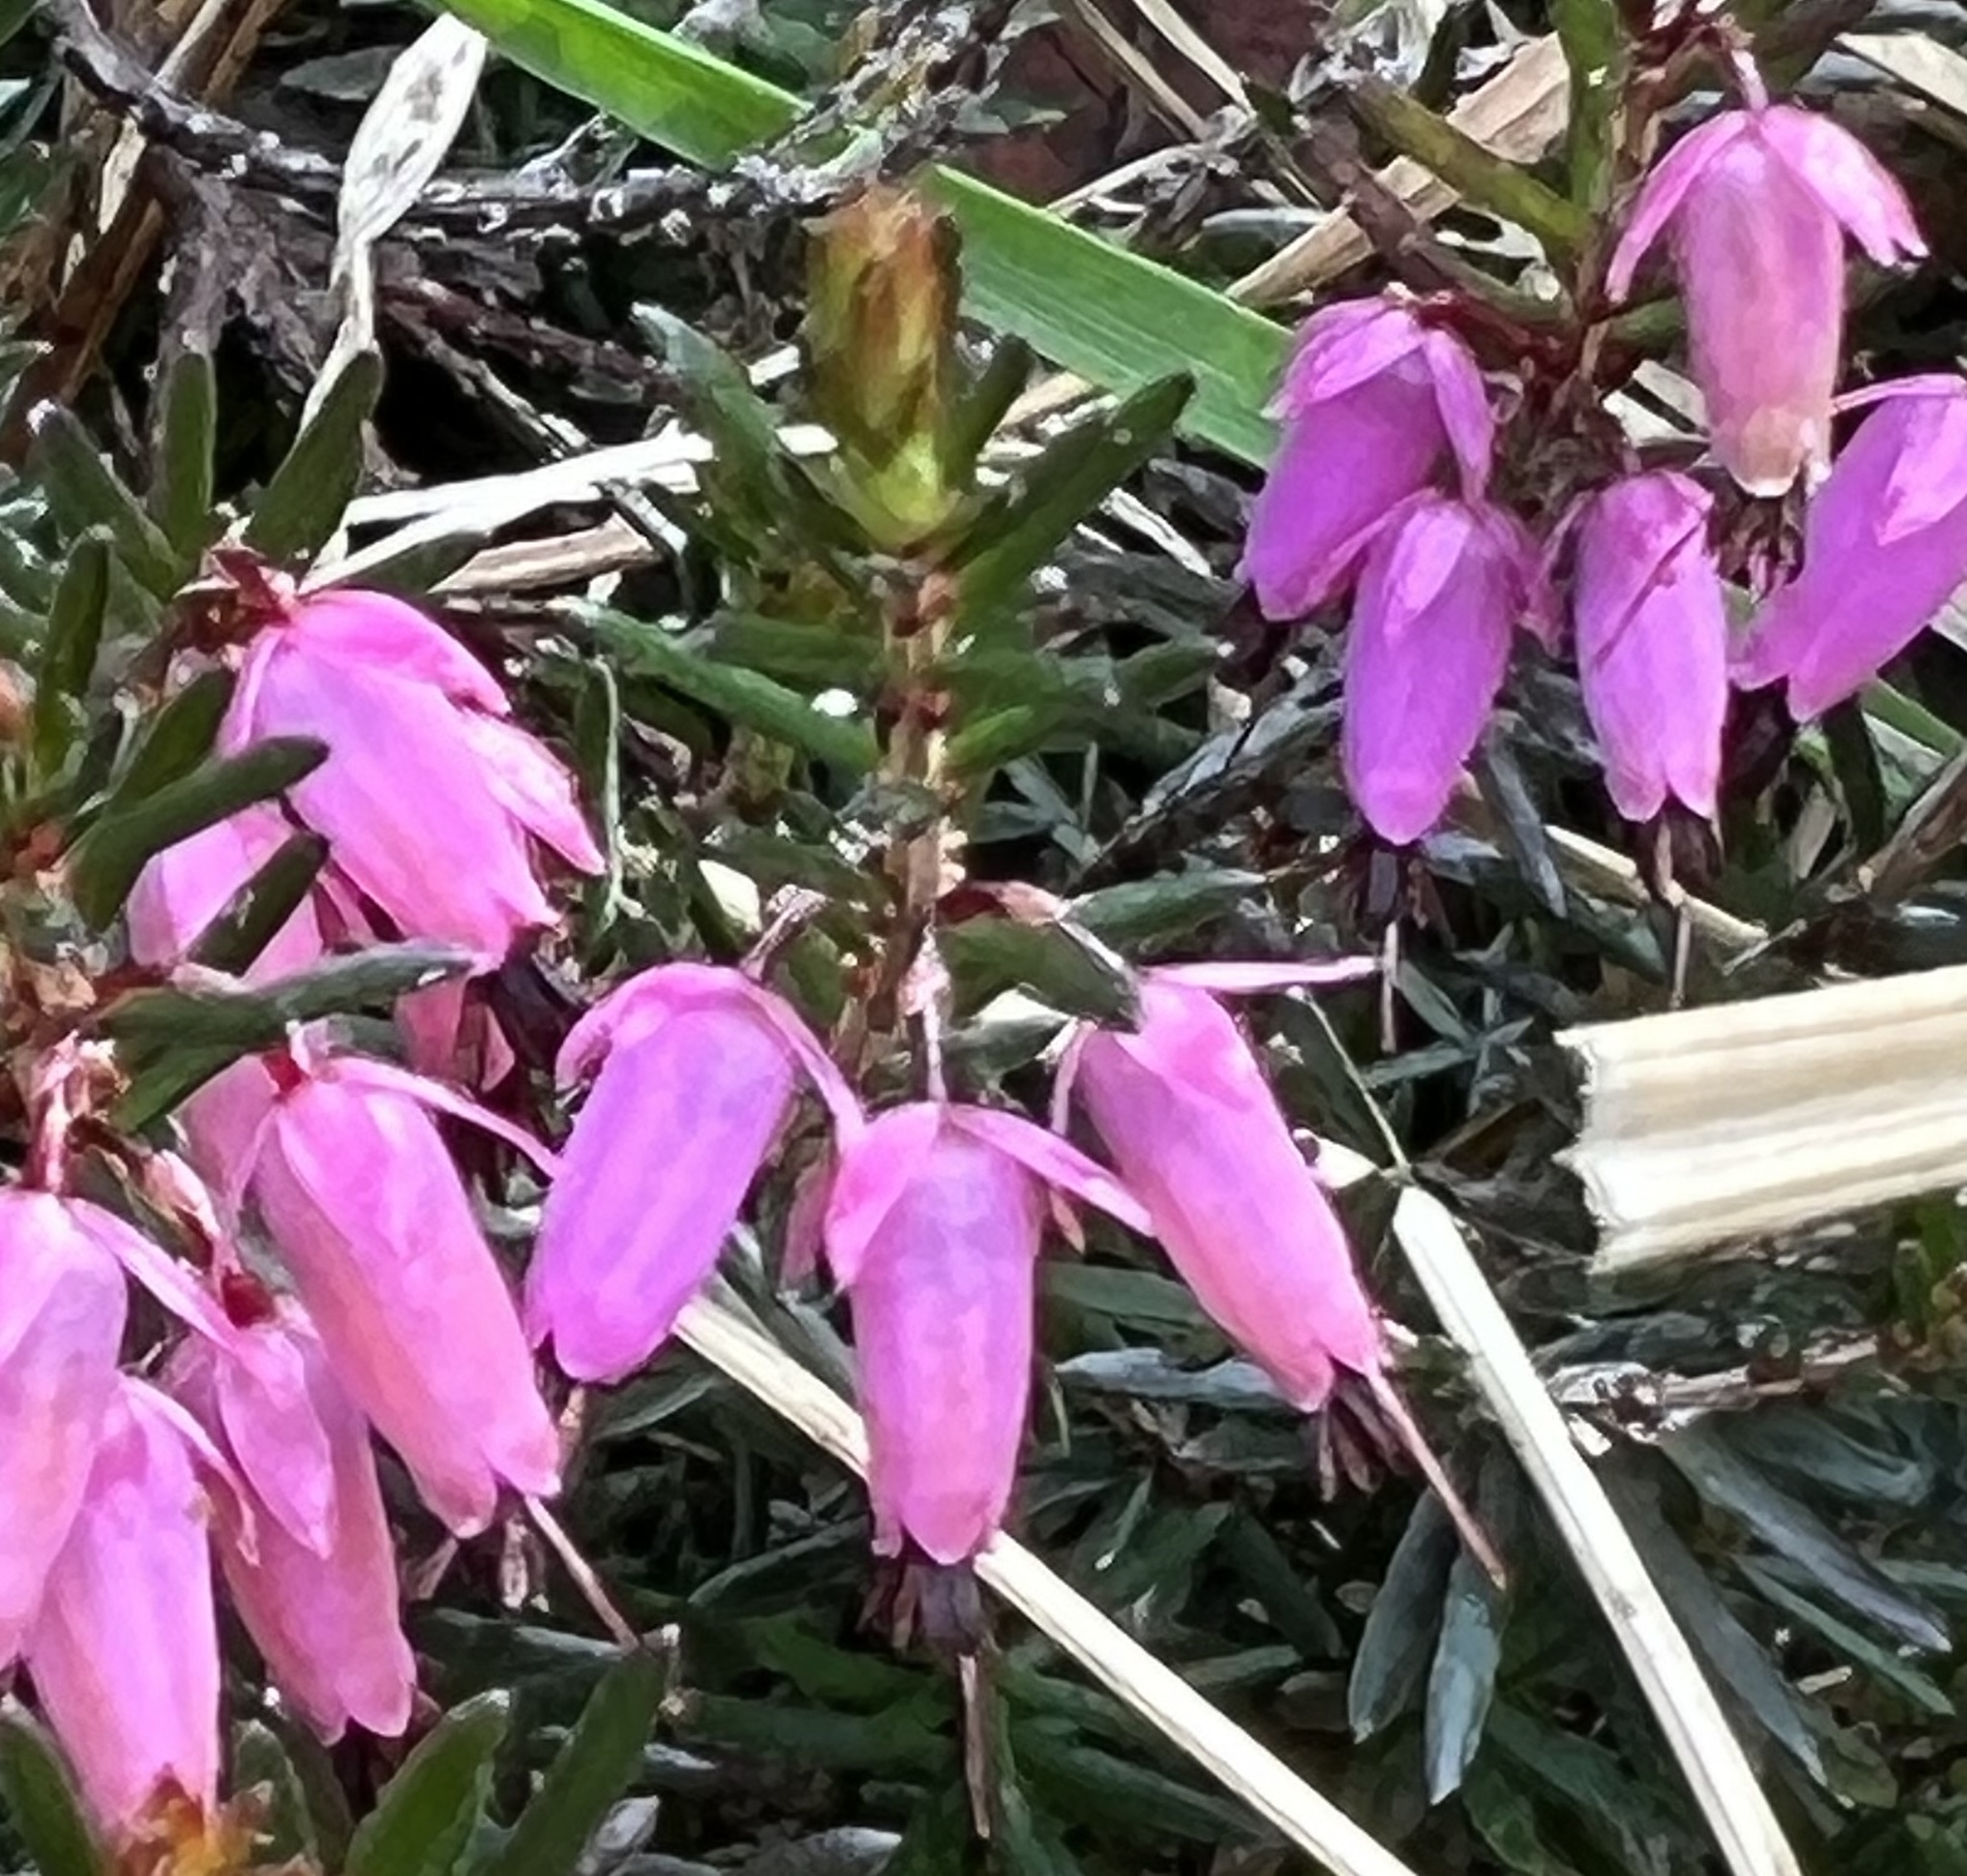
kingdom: Plantae
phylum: Tracheophyta
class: Magnoliopsida
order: Ericales
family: Ericaceae
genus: Erica
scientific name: Erica carnea
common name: Winter heath
